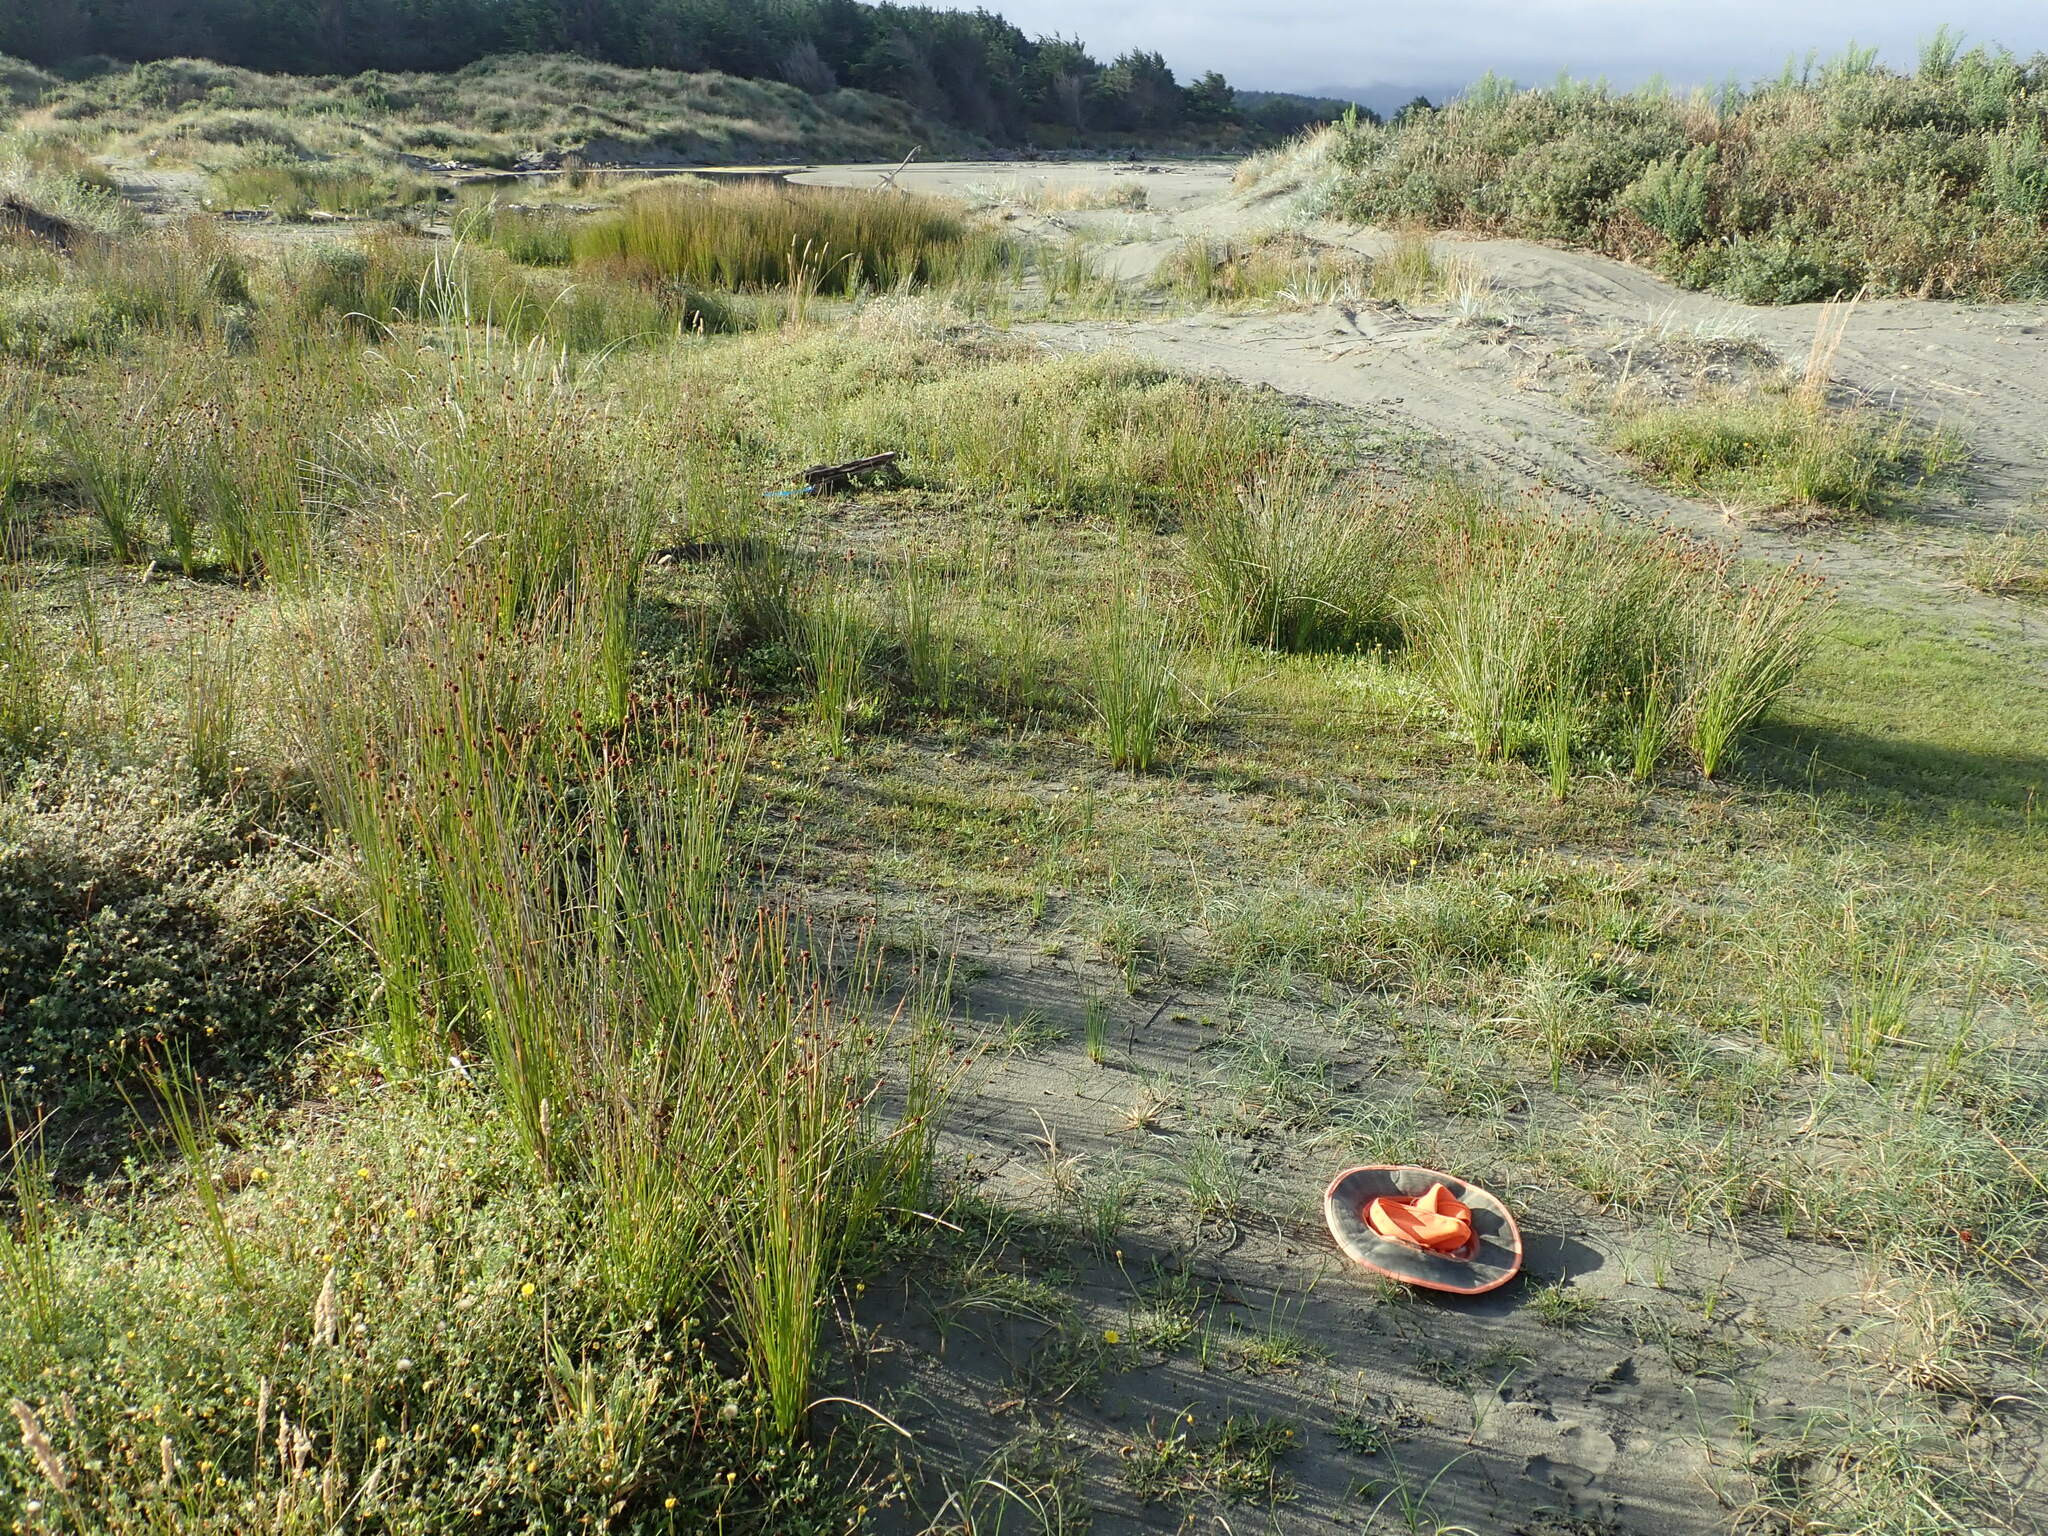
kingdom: Plantae
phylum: Tracheophyta
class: Liliopsida
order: Poales
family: Cyperaceae
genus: Carex
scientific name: Carex pumila
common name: Dwarf sedge
